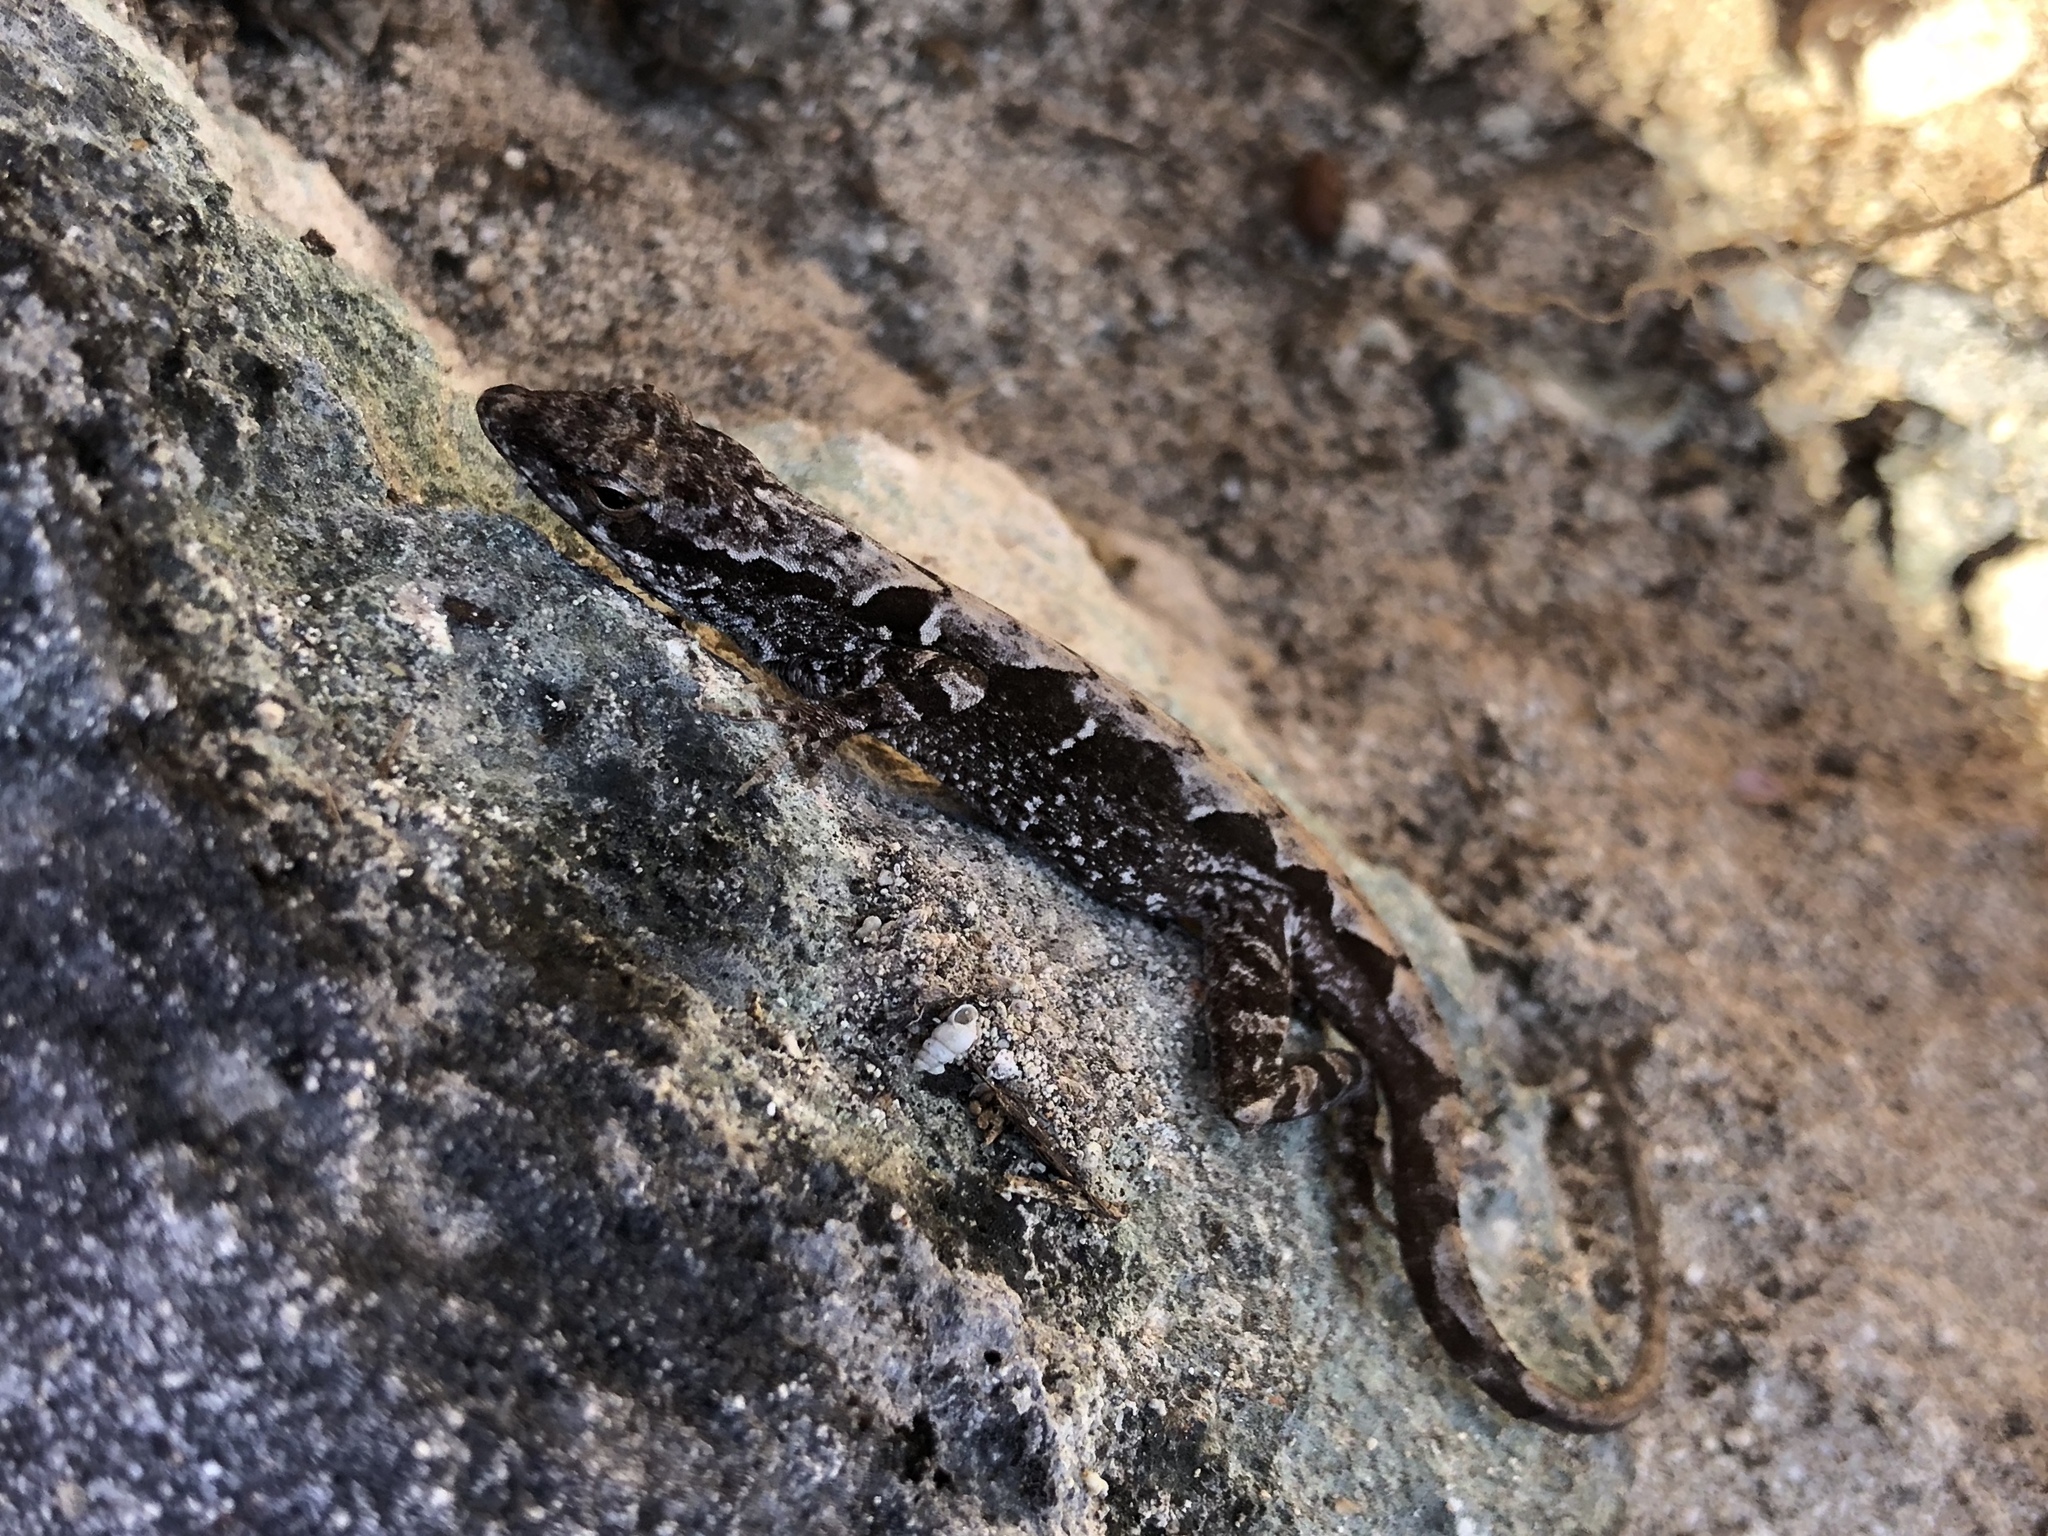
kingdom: Animalia
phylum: Chordata
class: Squamata
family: Dactyloidae
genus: Anolis
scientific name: Anolis sagrei
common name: Brown anole
